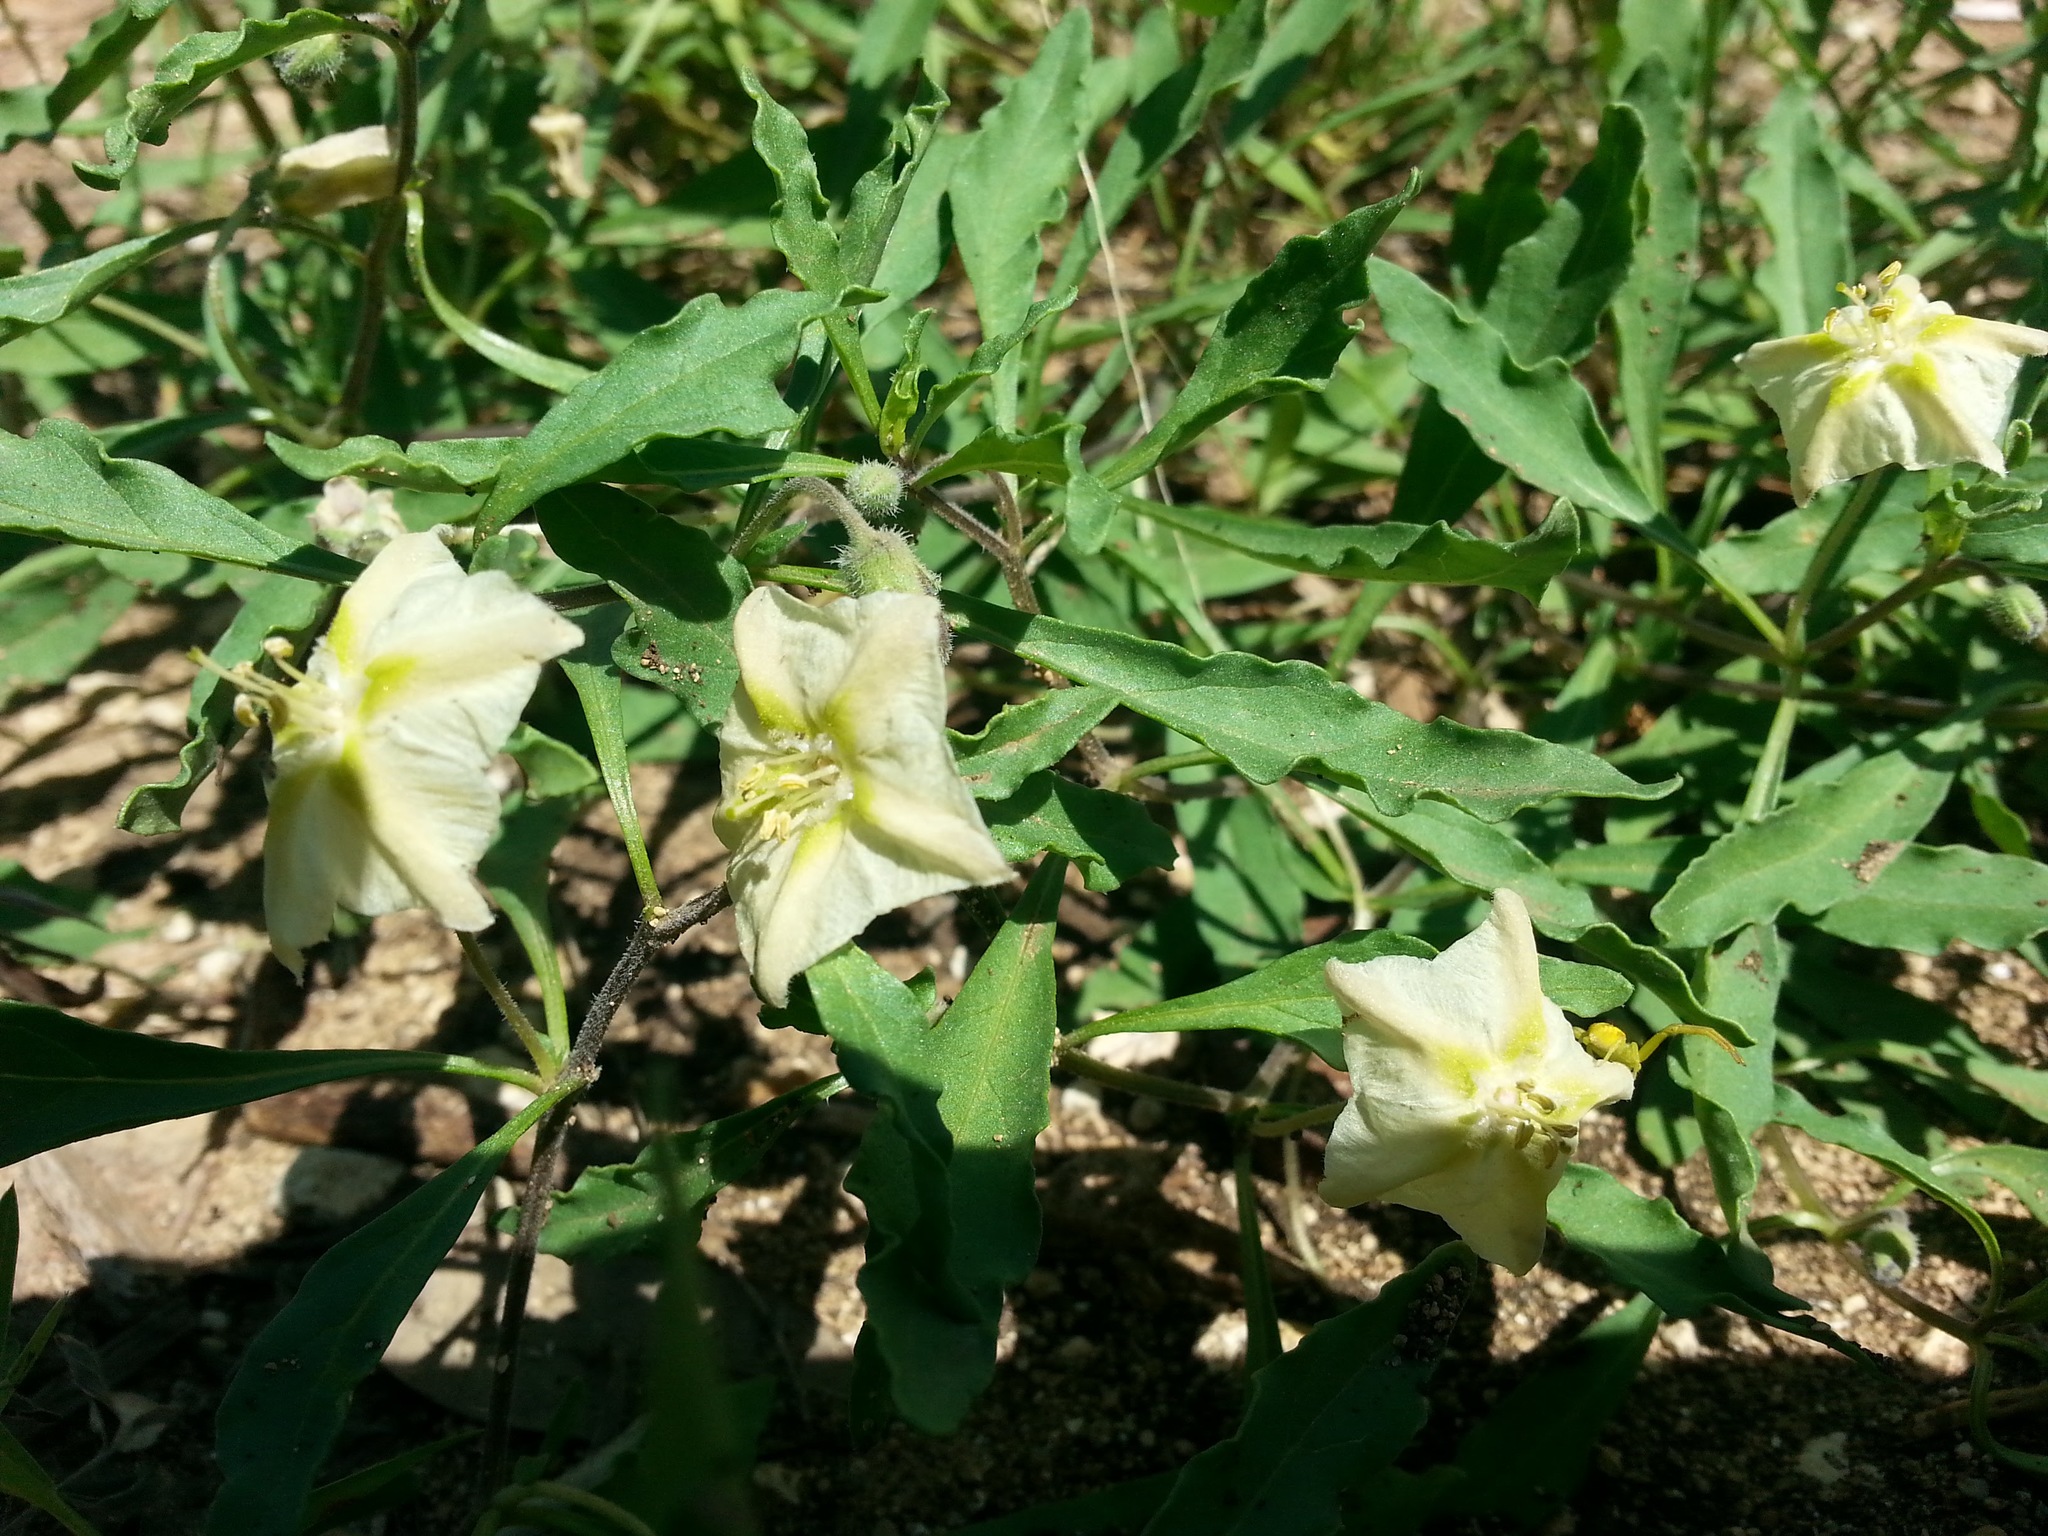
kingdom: Plantae
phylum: Tracheophyta
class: Magnoliopsida
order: Solanales
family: Solanaceae
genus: Chamaesaracha
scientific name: Chamaesaracha edwardsiana
